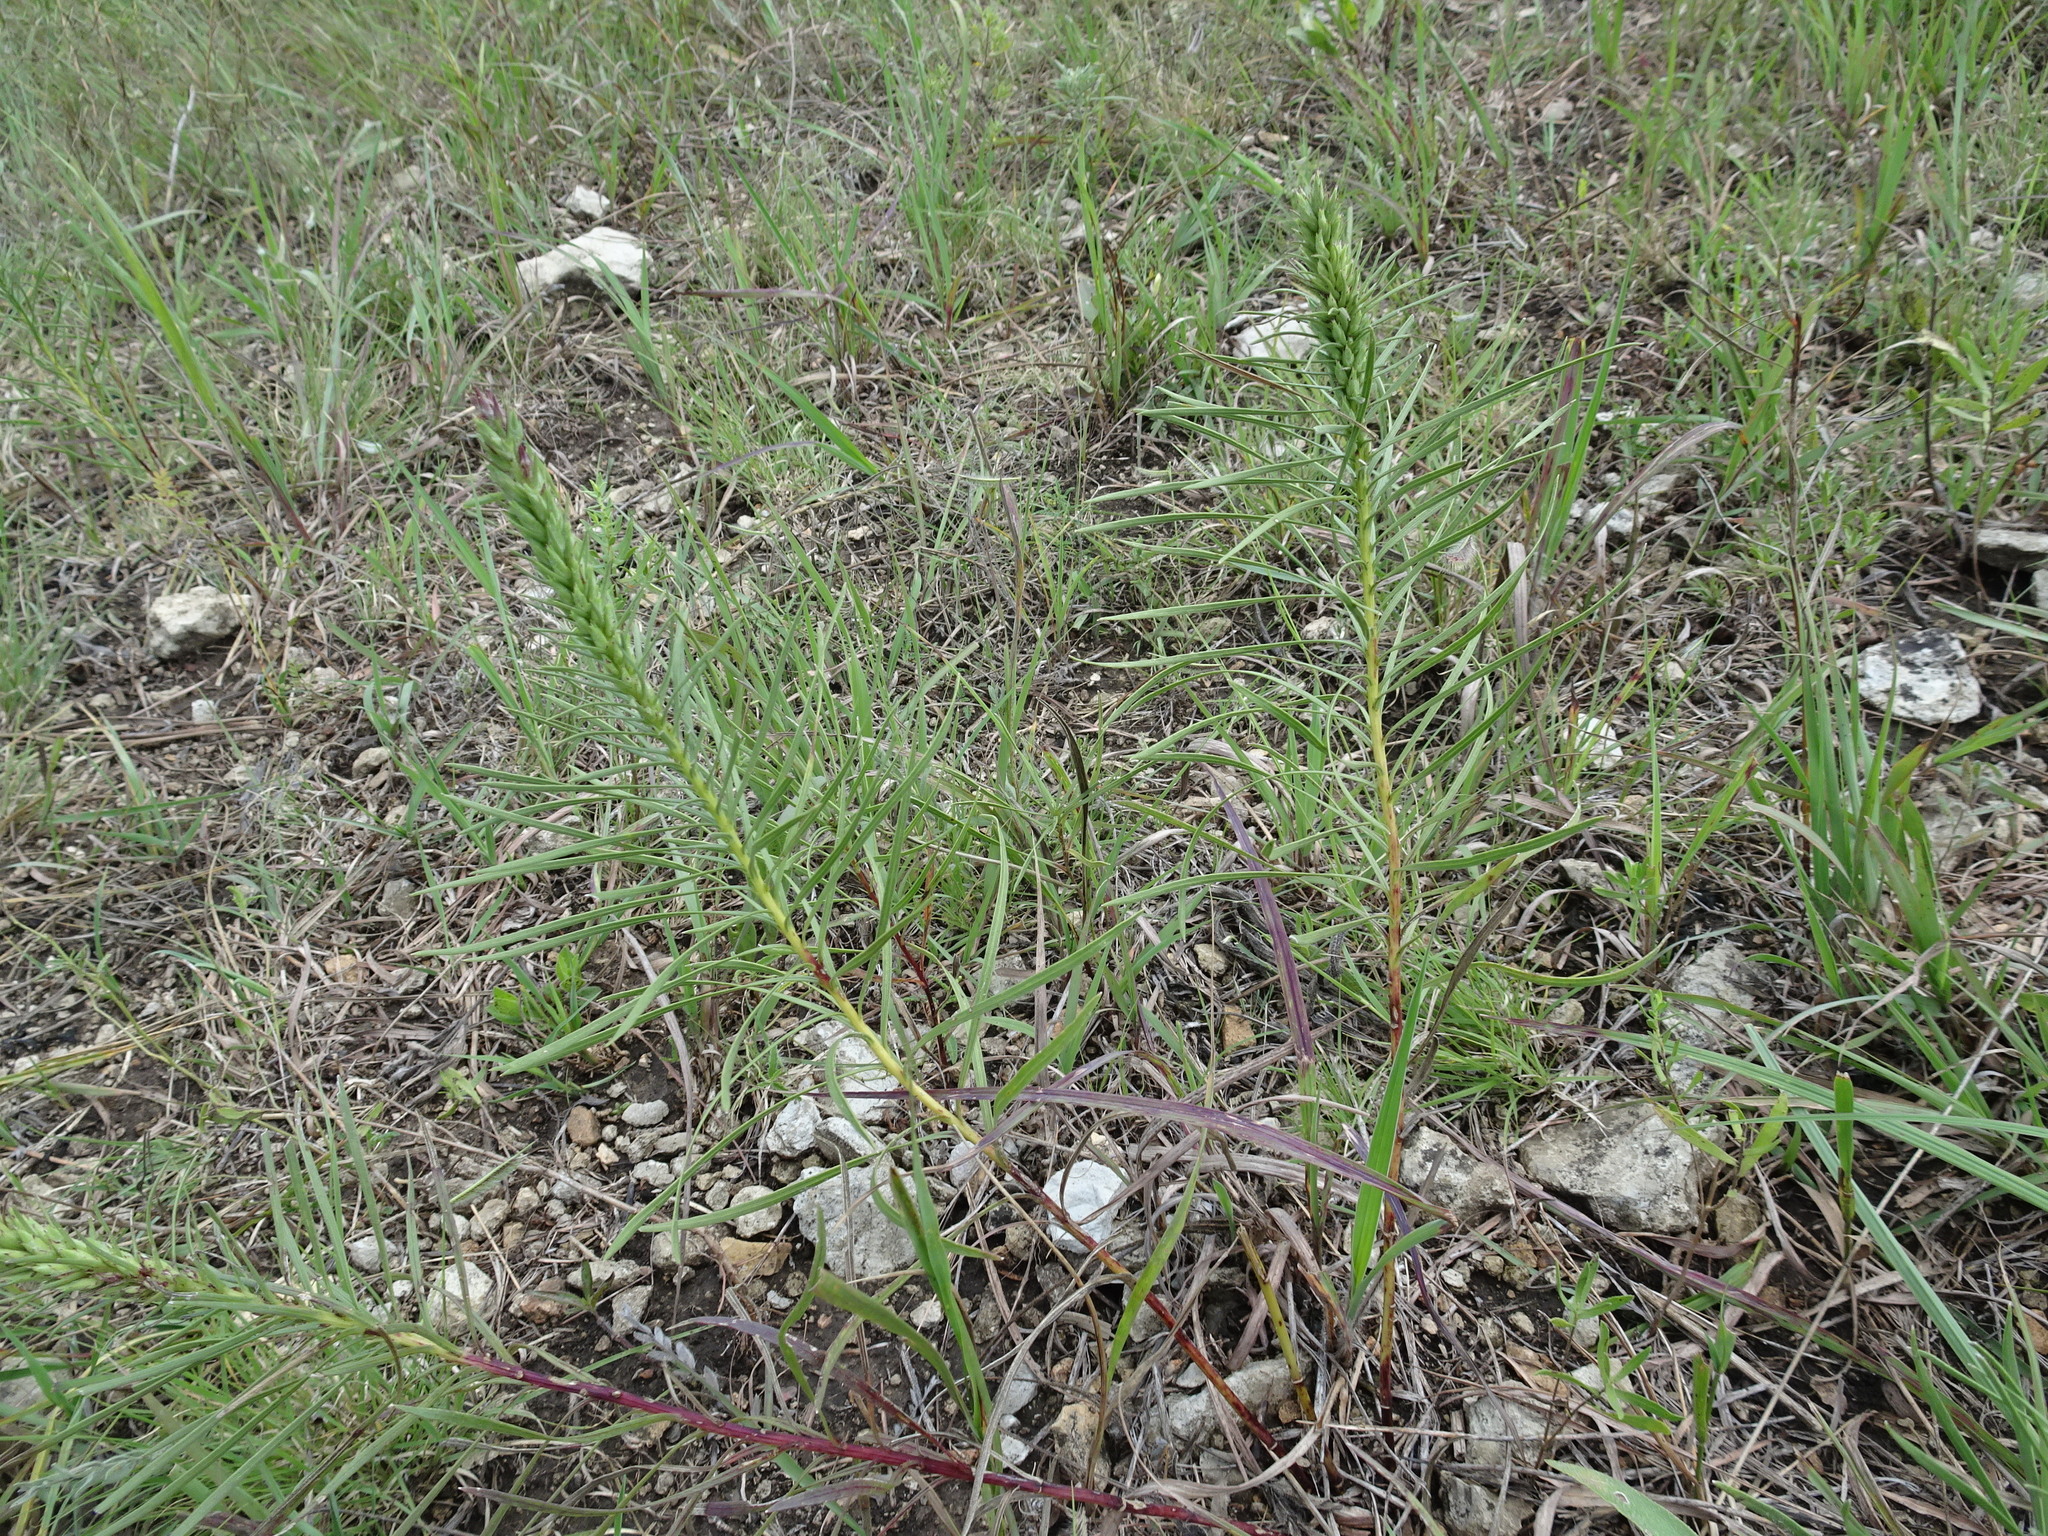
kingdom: Plantae
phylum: Tracheophyta
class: Magnoliopsida
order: Asterales
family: Asteraceae
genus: Liatris
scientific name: Liatris punctata
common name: Dotted gayfeather
